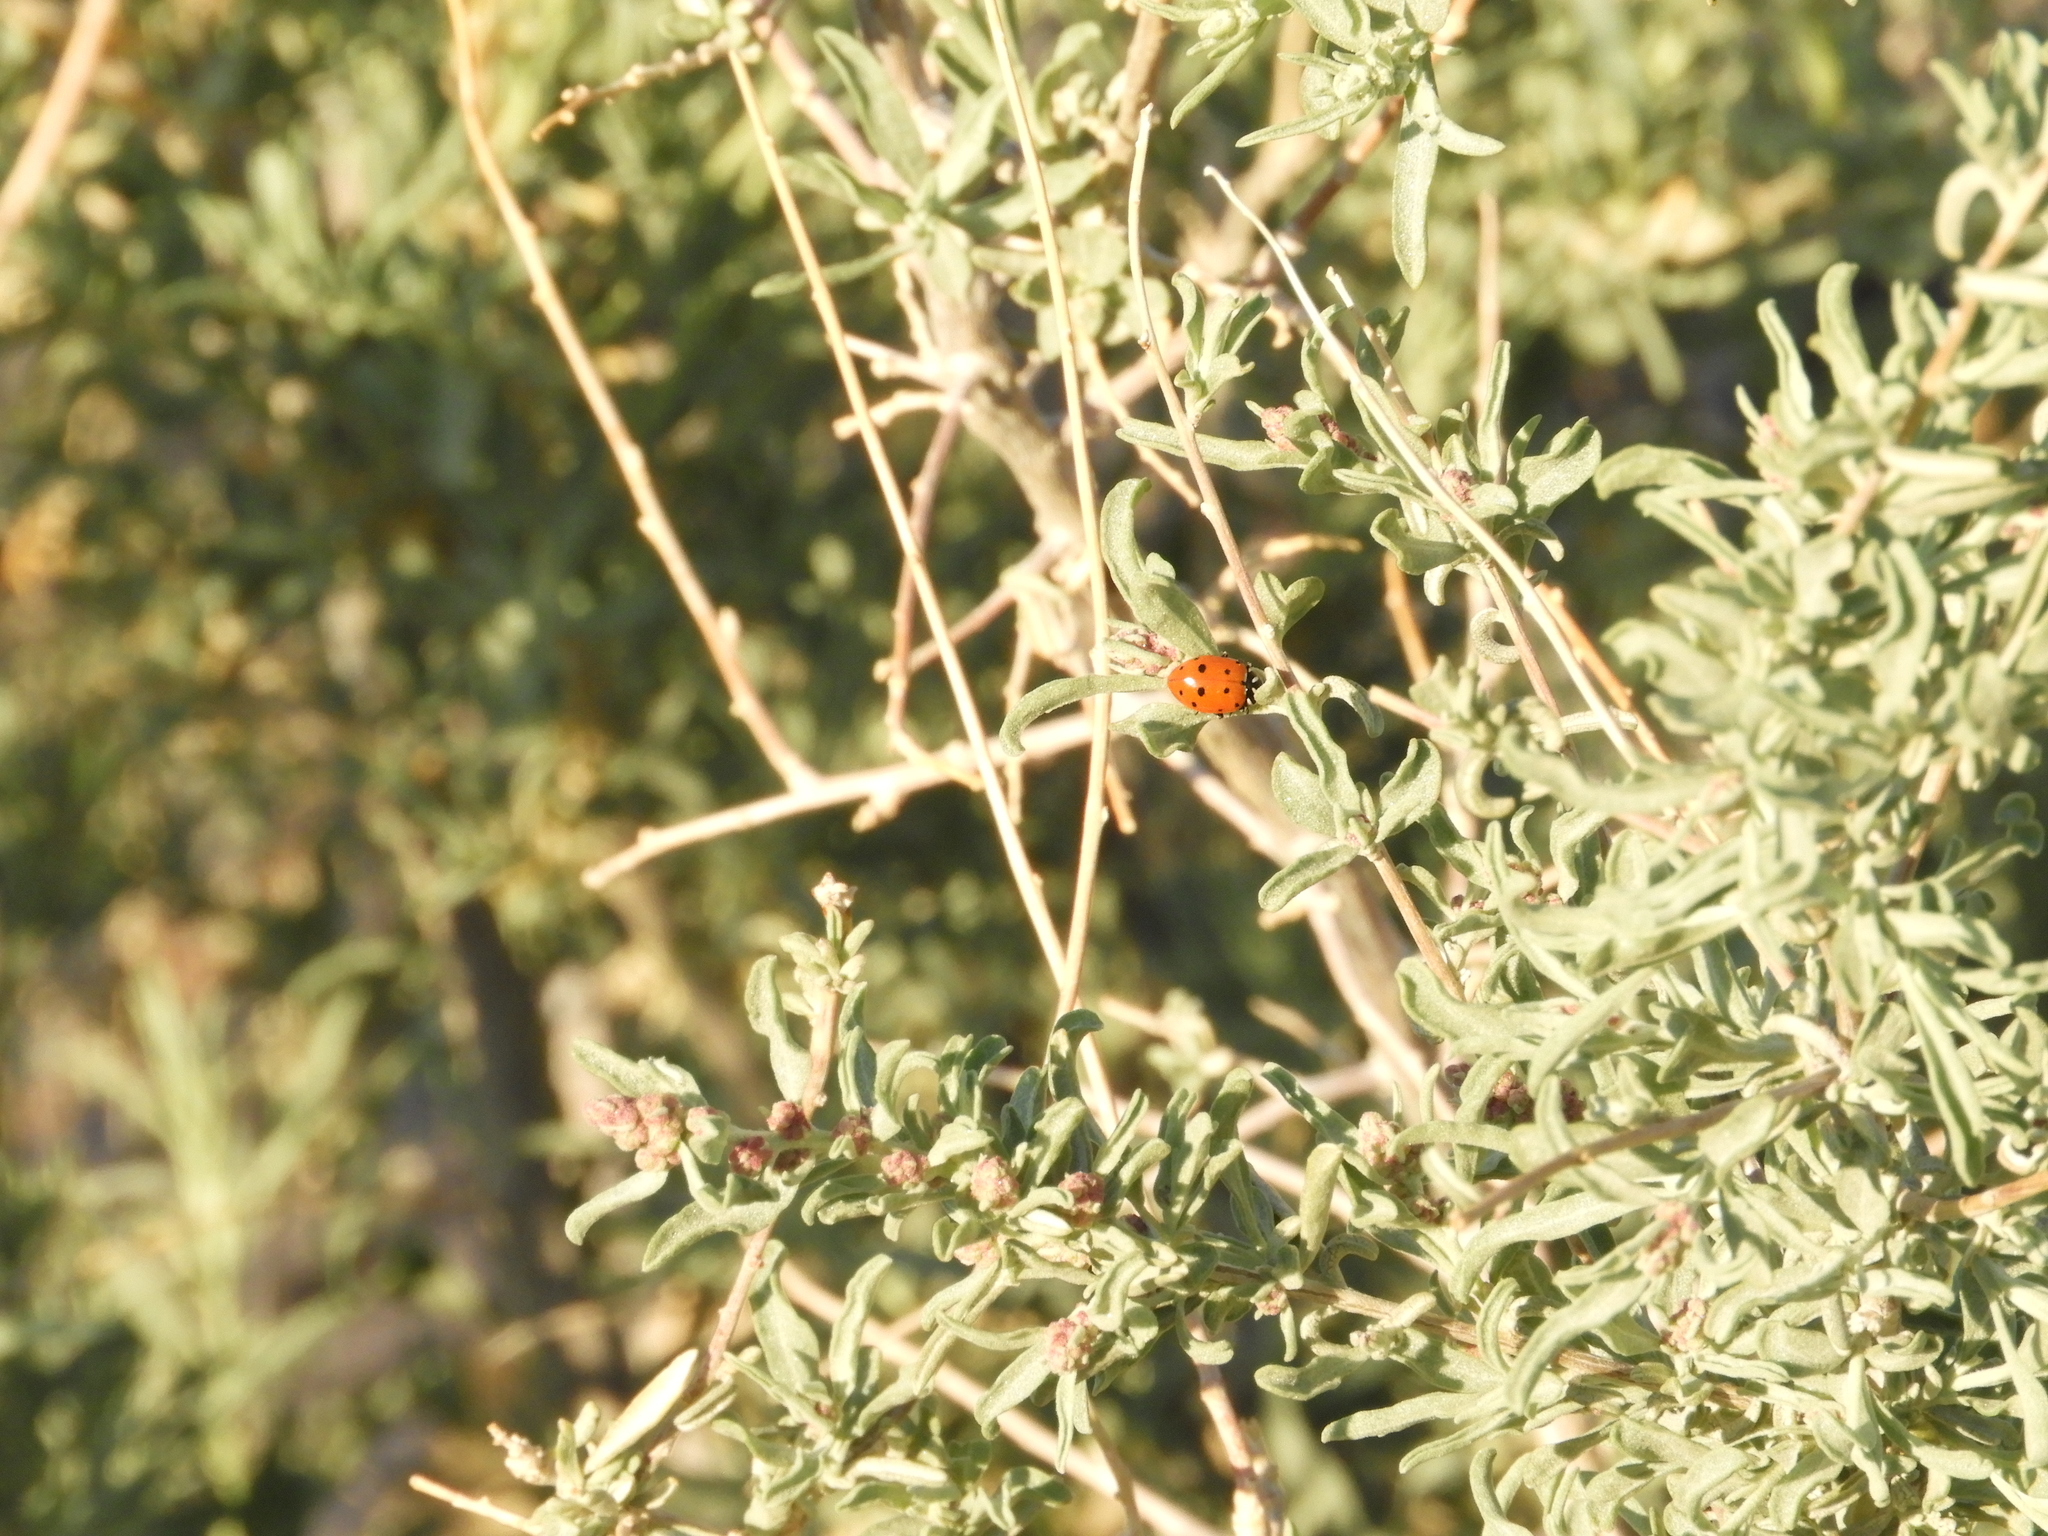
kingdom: Plantae
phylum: Tracheophyta
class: Magnoliopsida
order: Caryophyllales
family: Amaranthaceae
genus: Atriplex
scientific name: Atriplex canescens
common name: Four-wing saltbush
